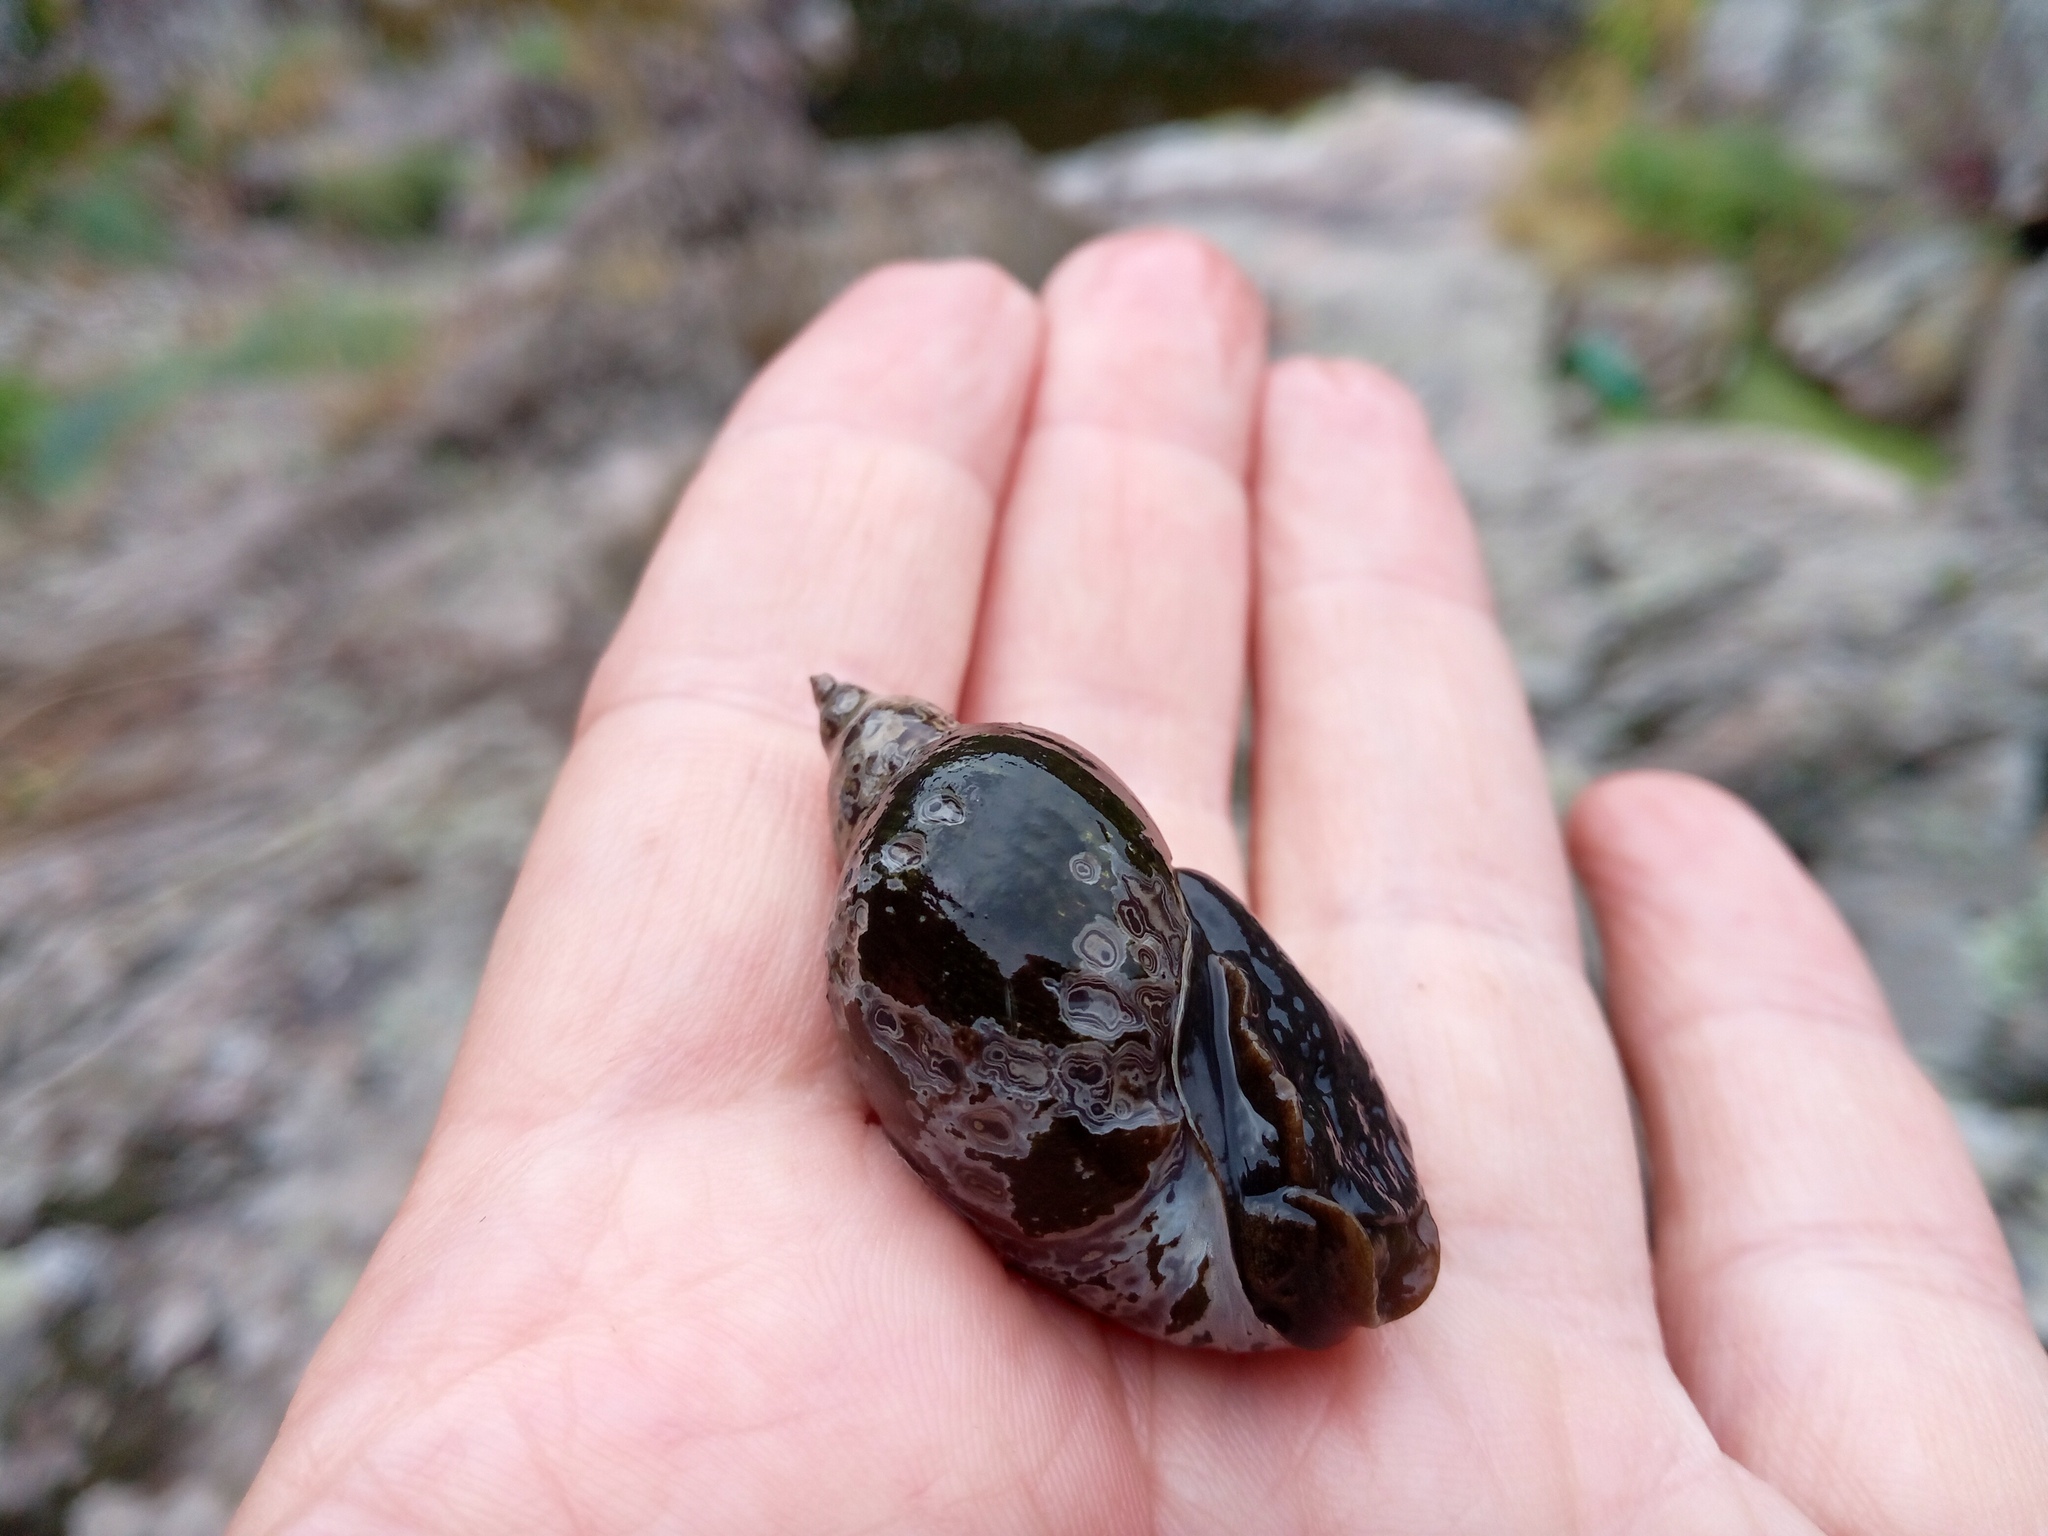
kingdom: Animalia
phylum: Mollusca
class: Gastropoda
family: Lymnaeidae
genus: Lymnaea
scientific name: Lymnaea stagnalis
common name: Great pond snail
